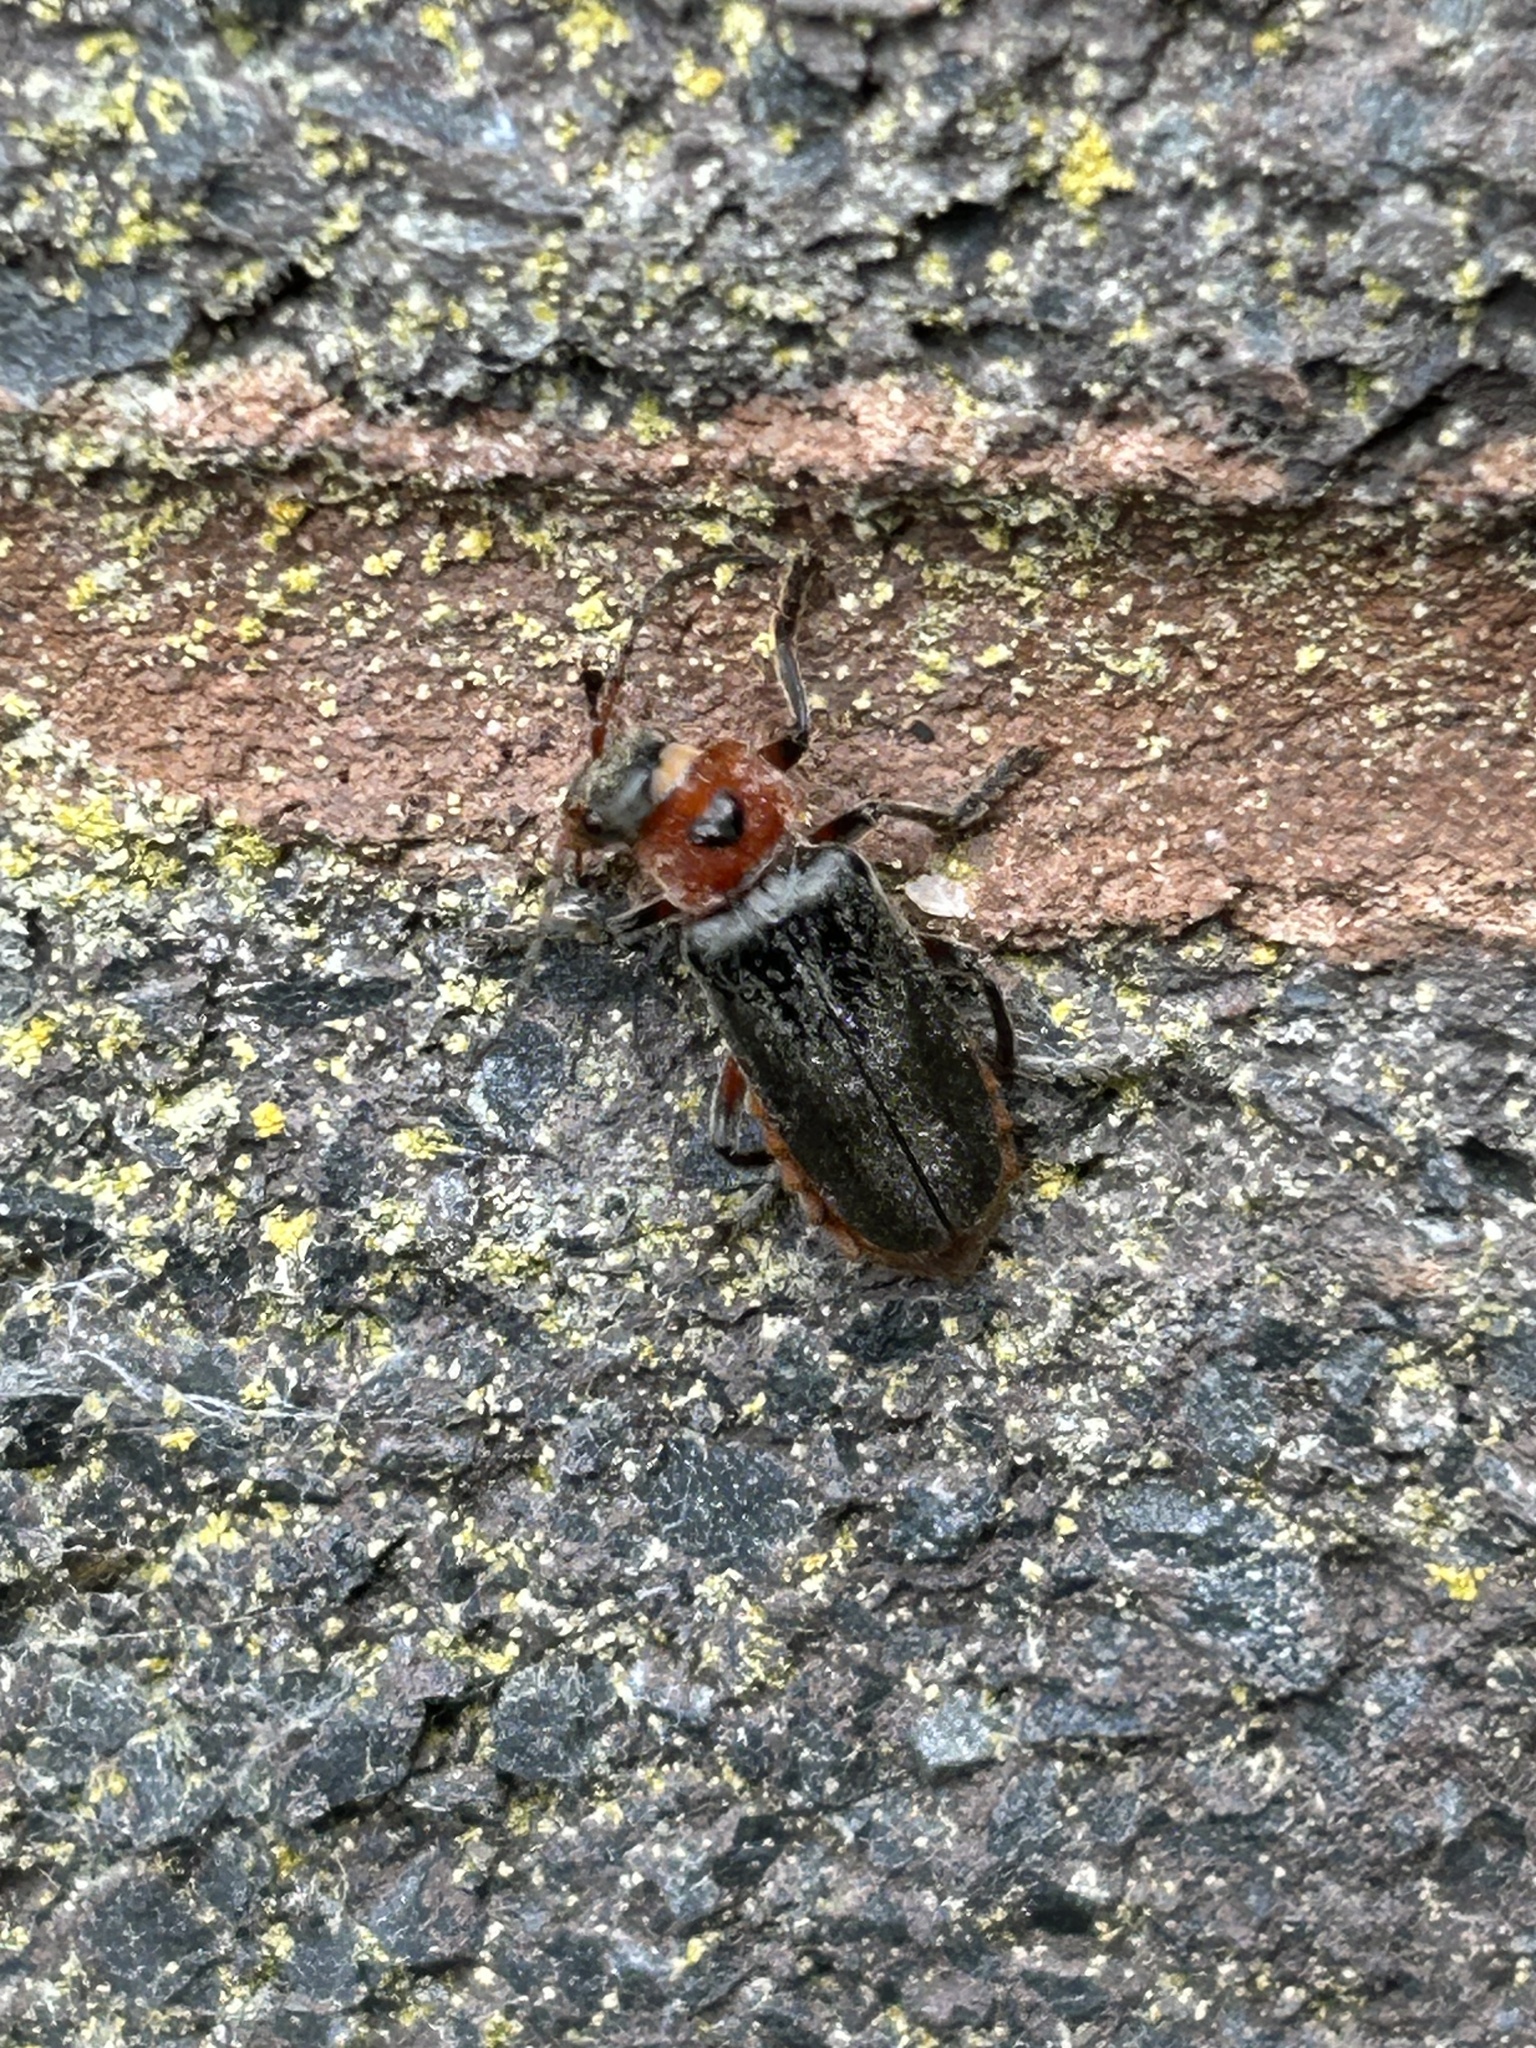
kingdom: Animalia
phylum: Arthropoda
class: Insecta
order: Coleoptera
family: Cantharidae
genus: Cantharis
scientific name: Cantharis rustica
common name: Soldier beetle
